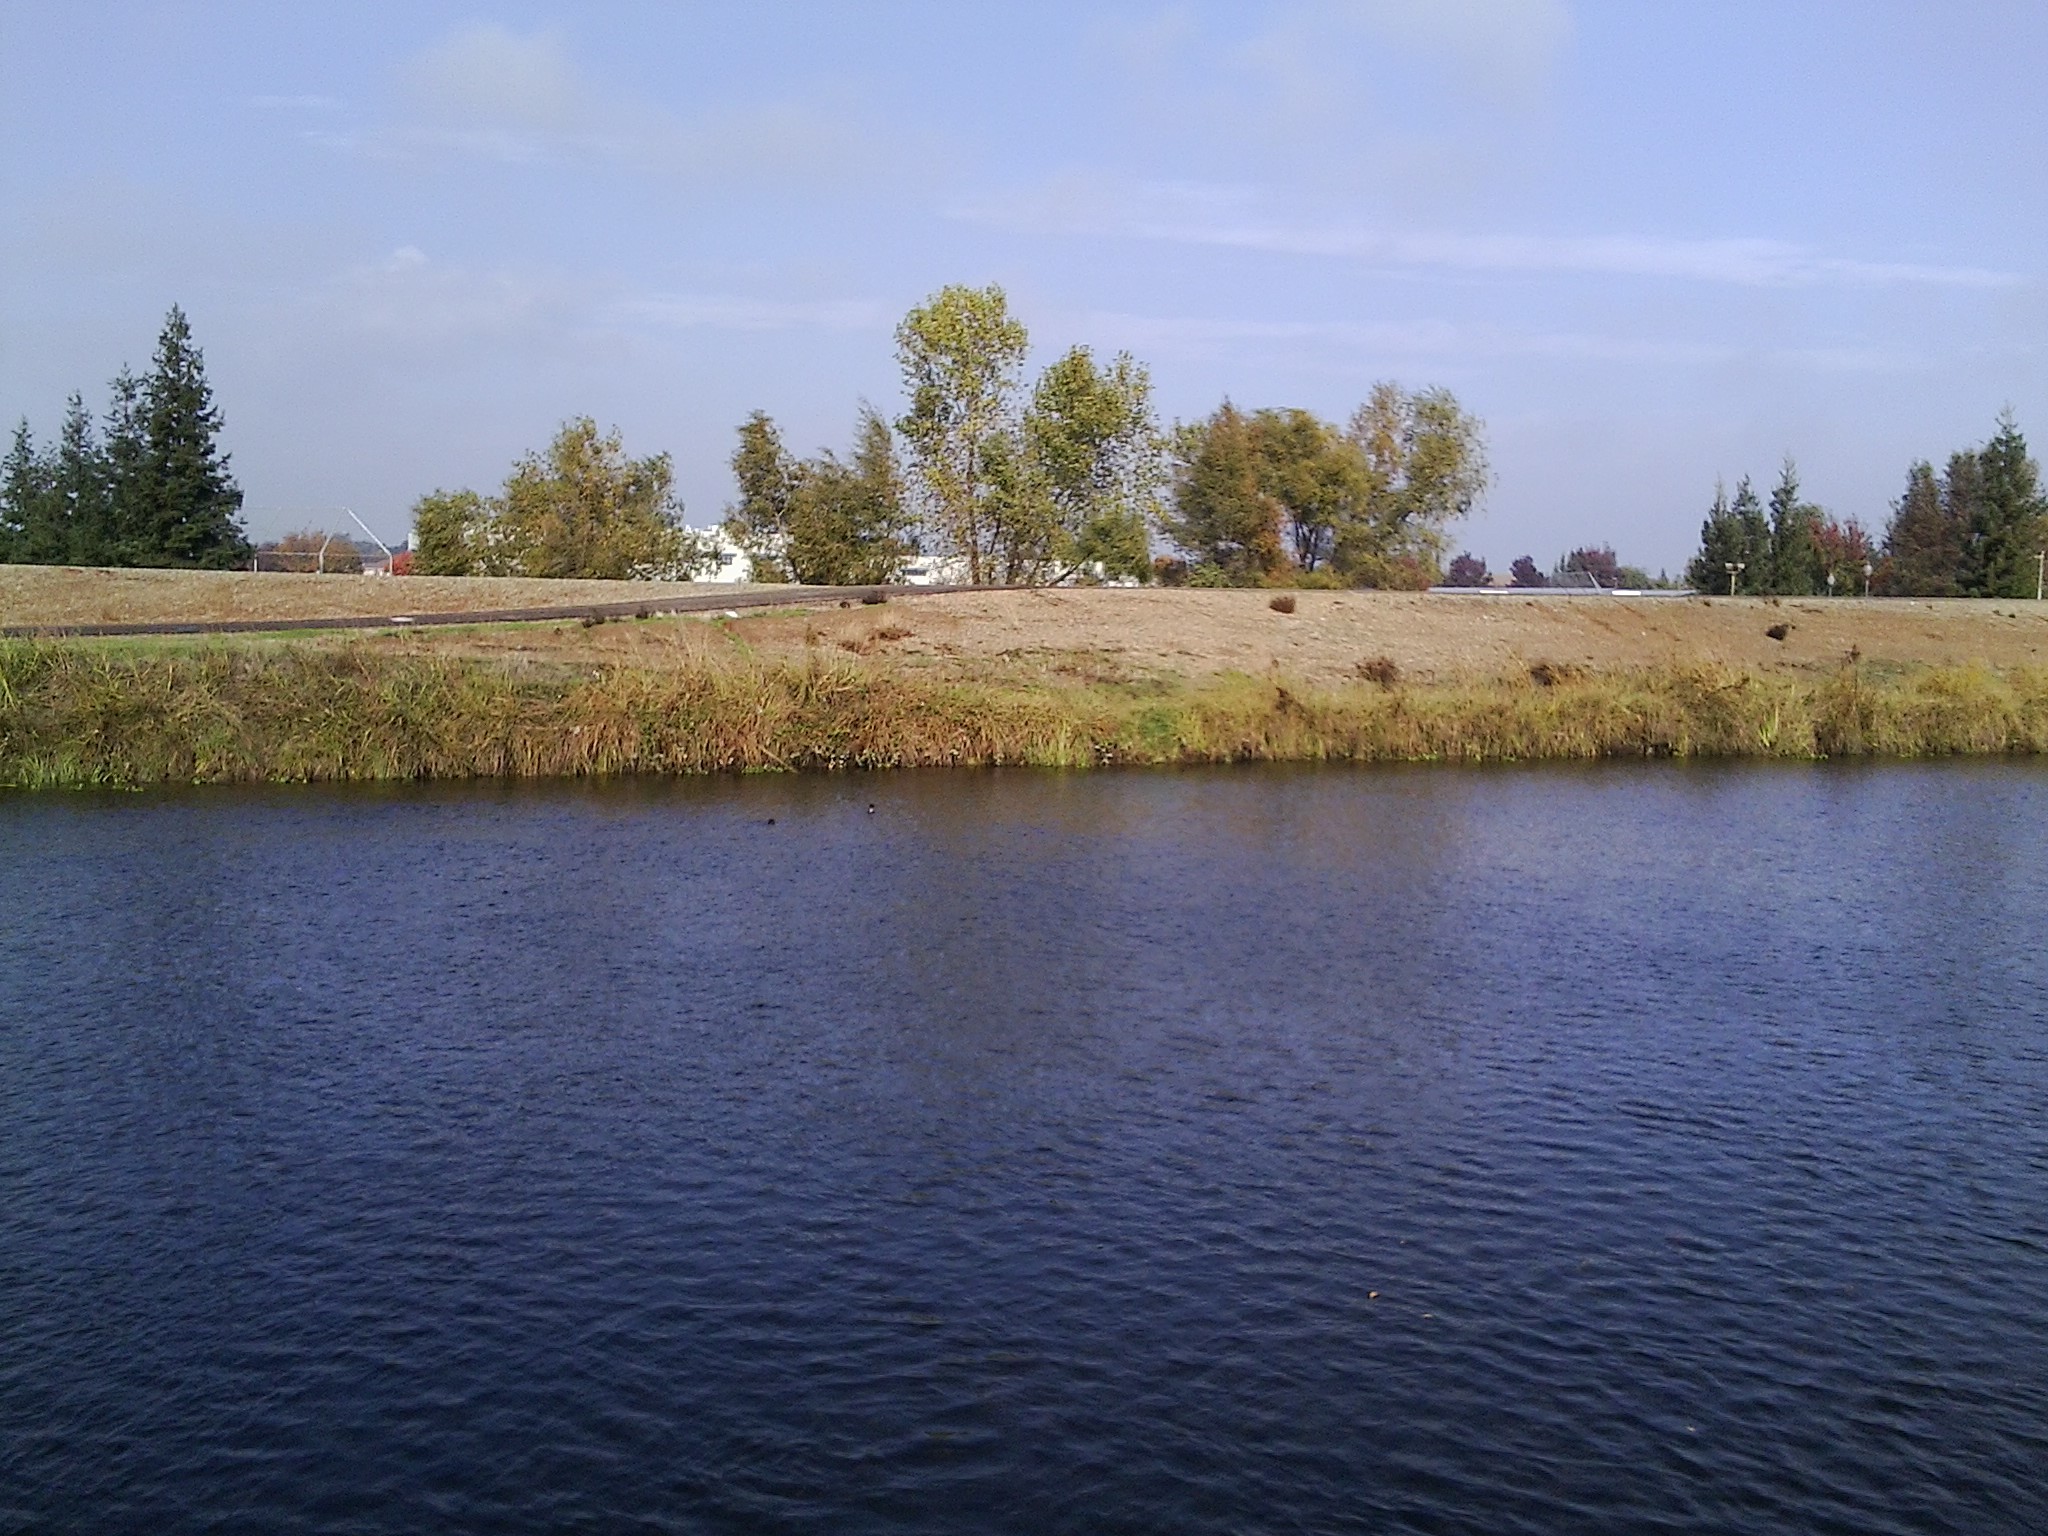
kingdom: Animalia
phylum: Chordata
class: Mammalia
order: Carnivora
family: Mustelidae
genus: Lontra
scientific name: Lontra canadensis
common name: North american river otter
